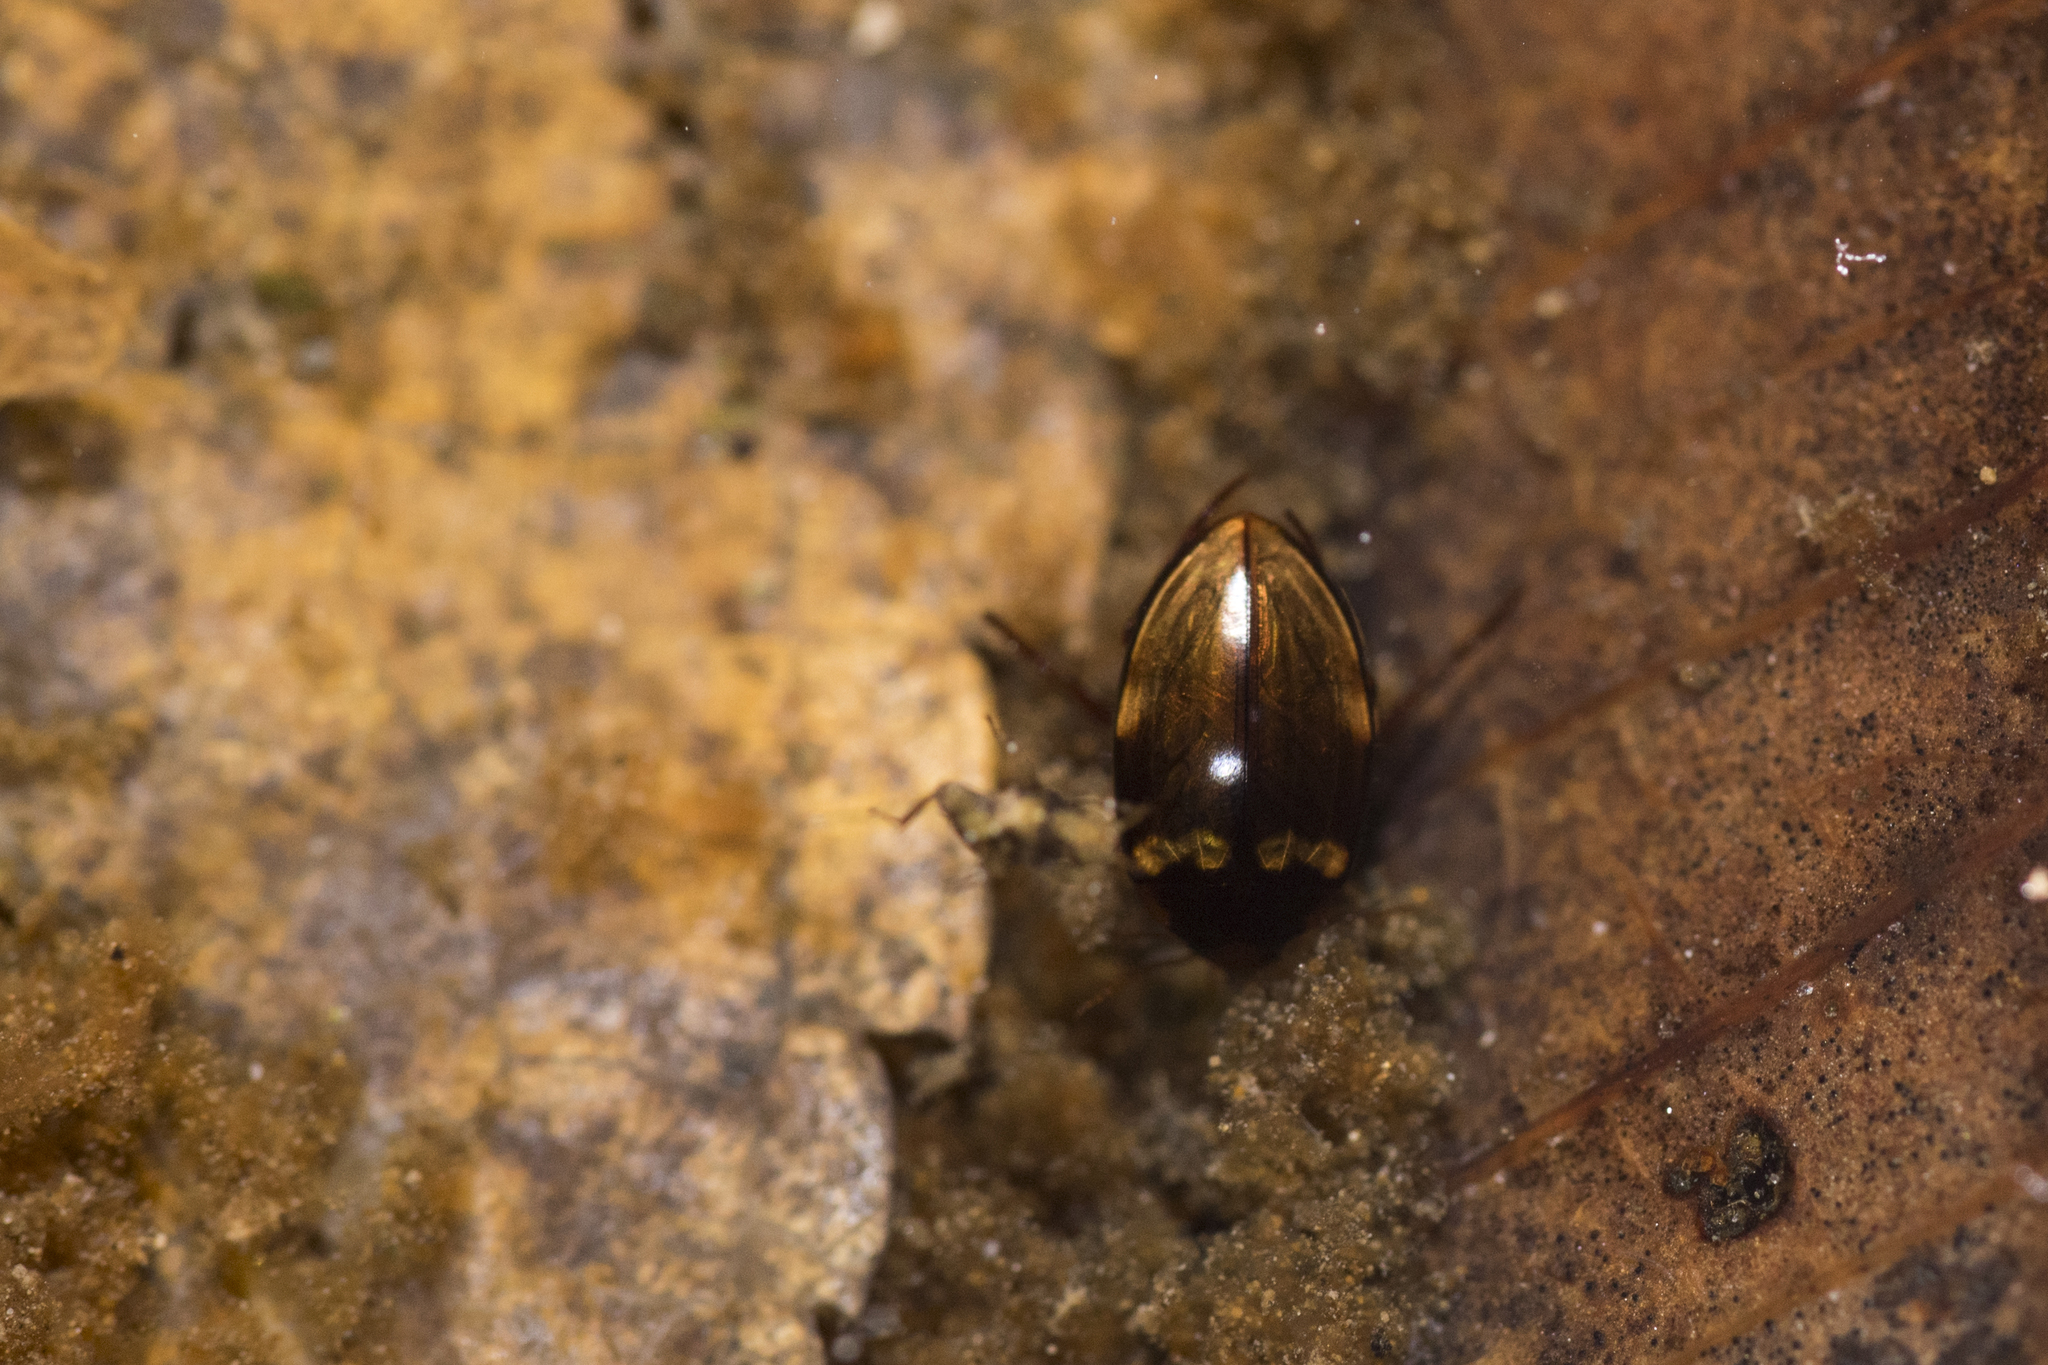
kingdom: Animalia
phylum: Arthropoda
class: Insecta
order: Coleoptera
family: Dytiscidae
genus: Lacconectus
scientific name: Lacconectus formosanus
